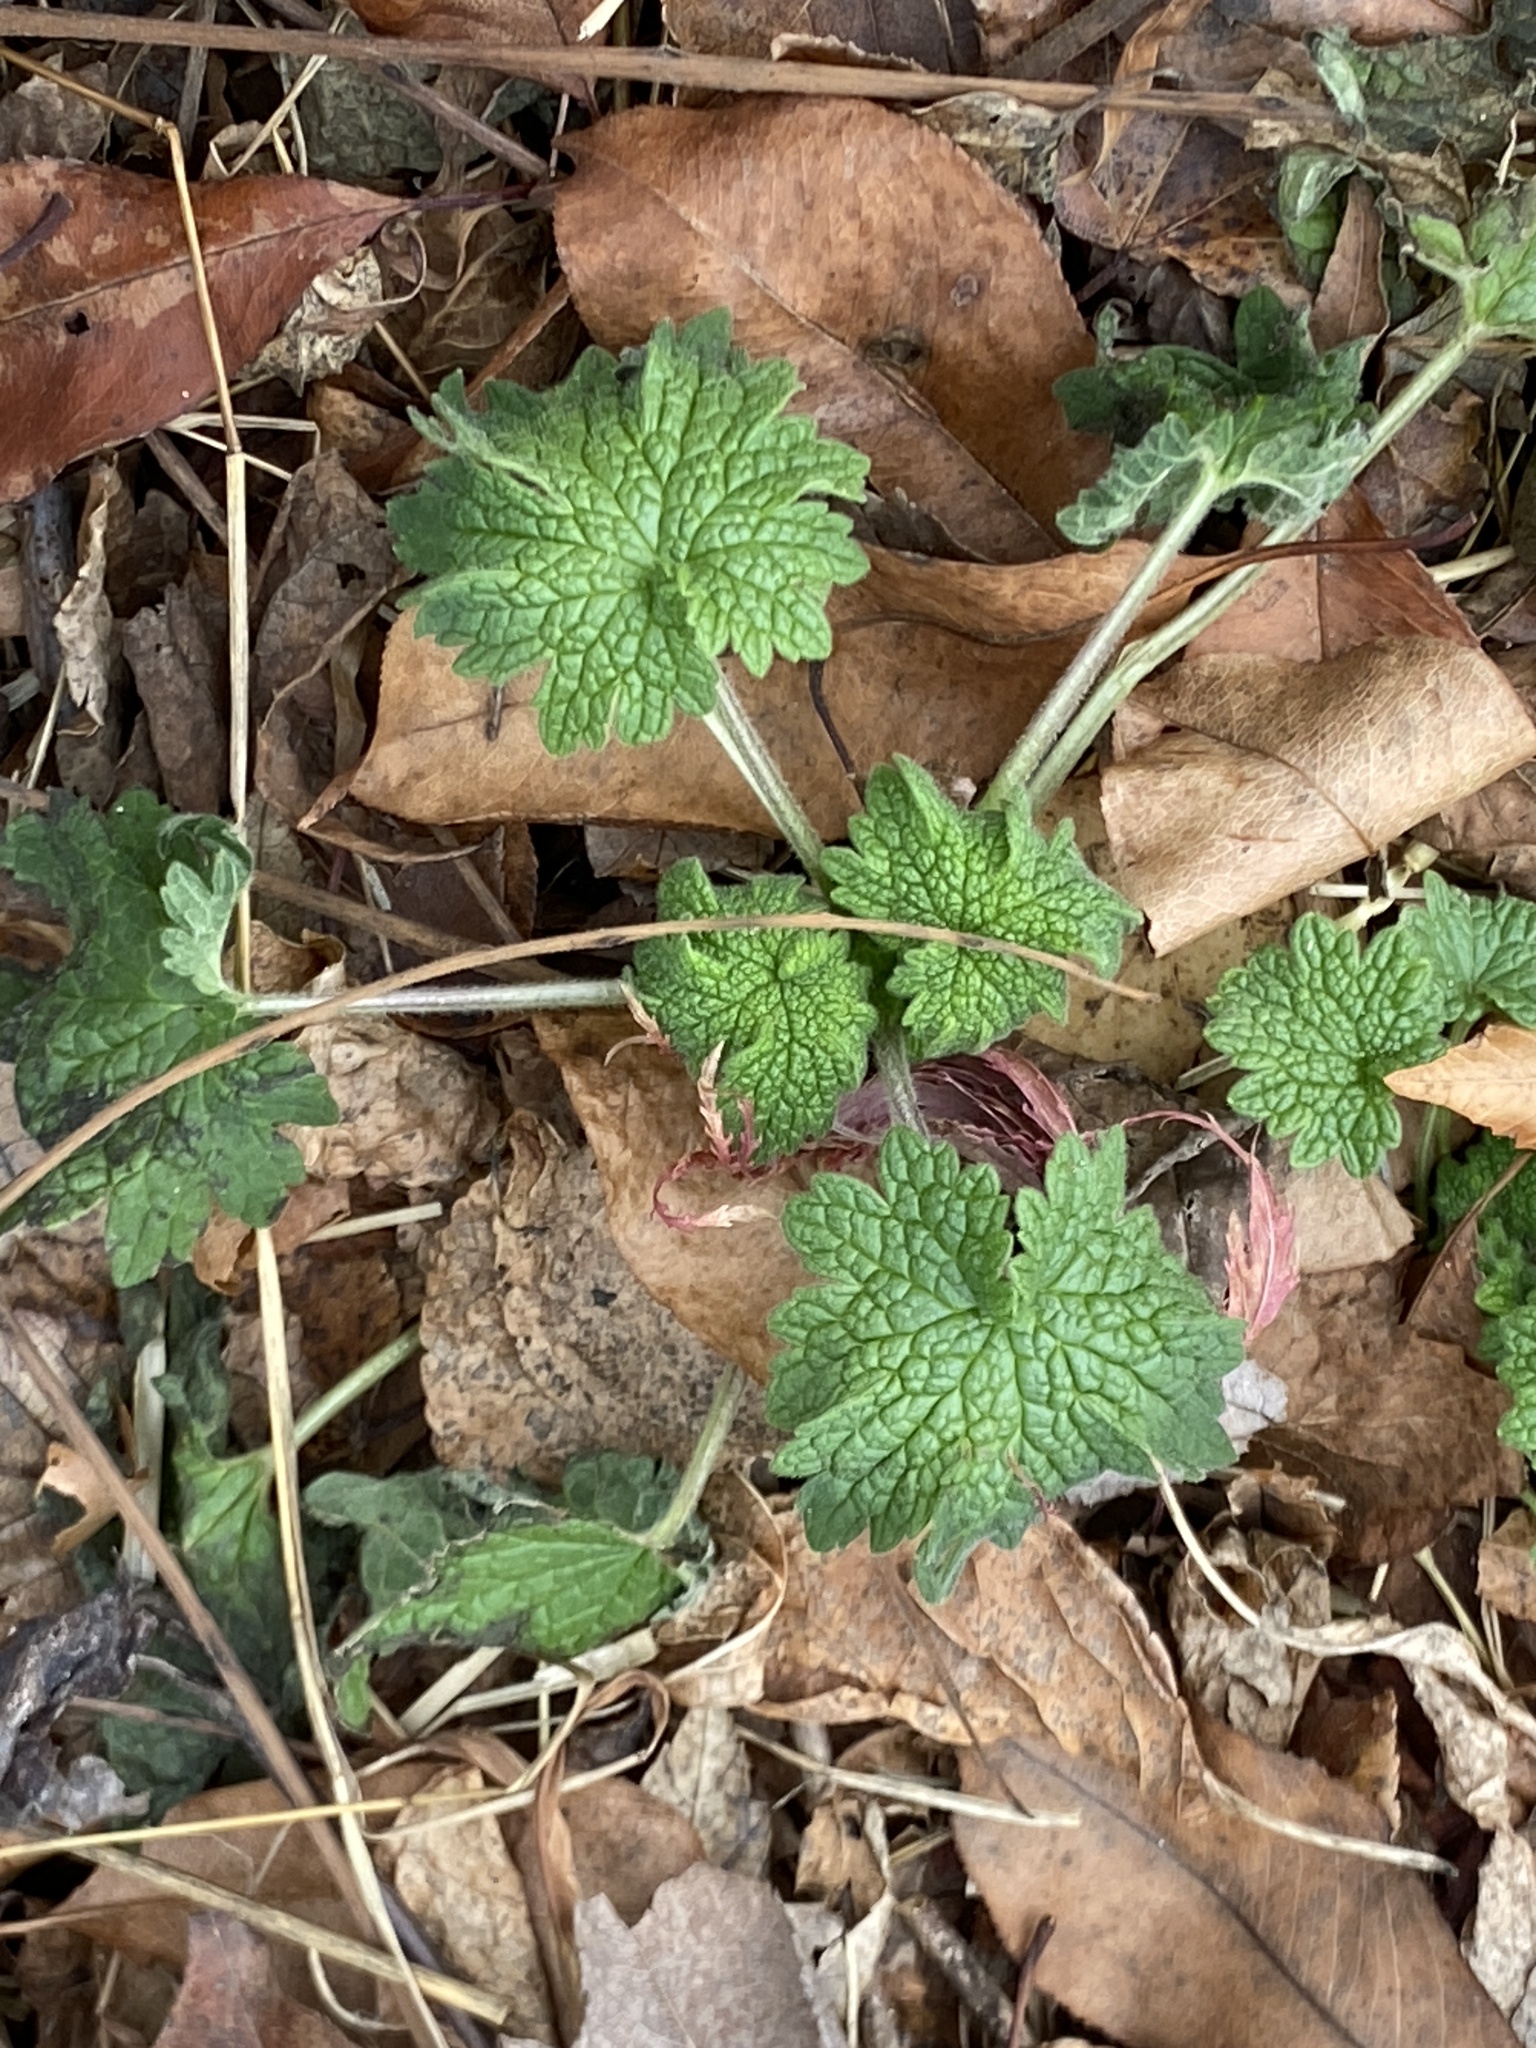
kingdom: Plantae
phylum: Tracheophyta
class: Magnoliopsida
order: Lamiales
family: Lamiaceae
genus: Leonurus
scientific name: Leonurus cardiaca
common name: Motherwort
